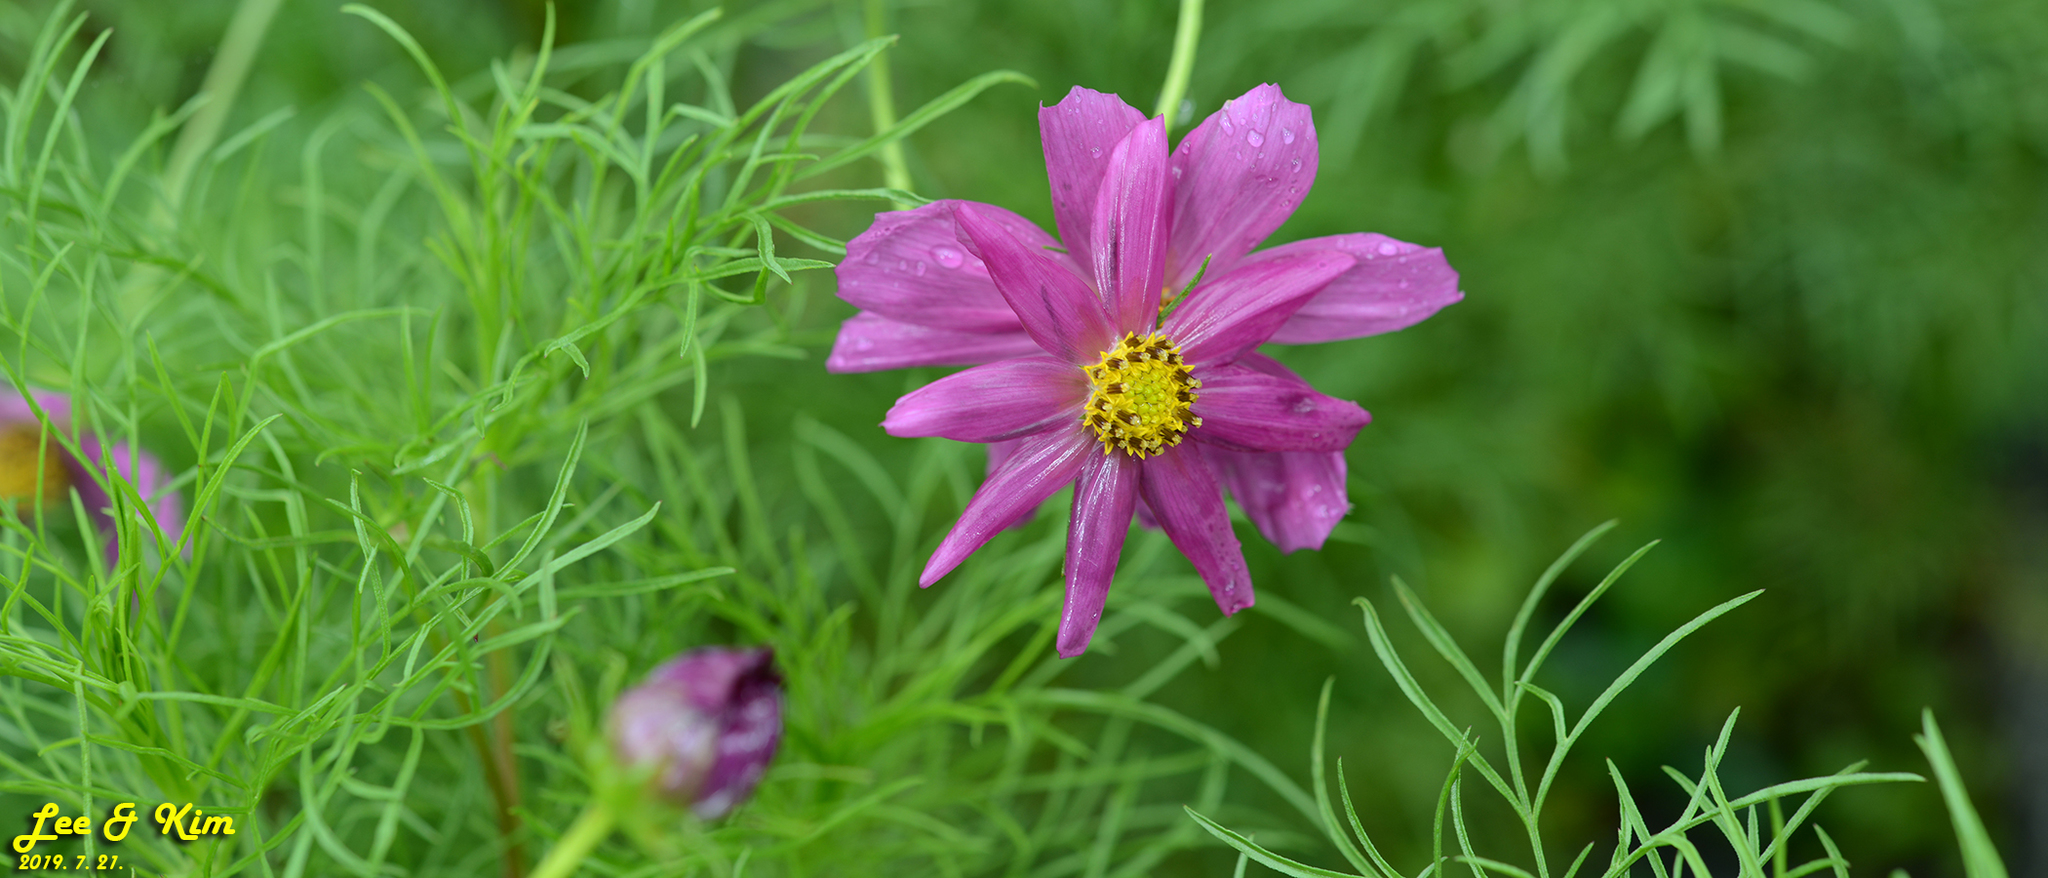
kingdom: Plantae
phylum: Tracheophyta
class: Magnoliopsida
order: Asterales
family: Asteraceae
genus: Cosmos
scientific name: Cosmos bipinnatus
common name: Garden cosmos
